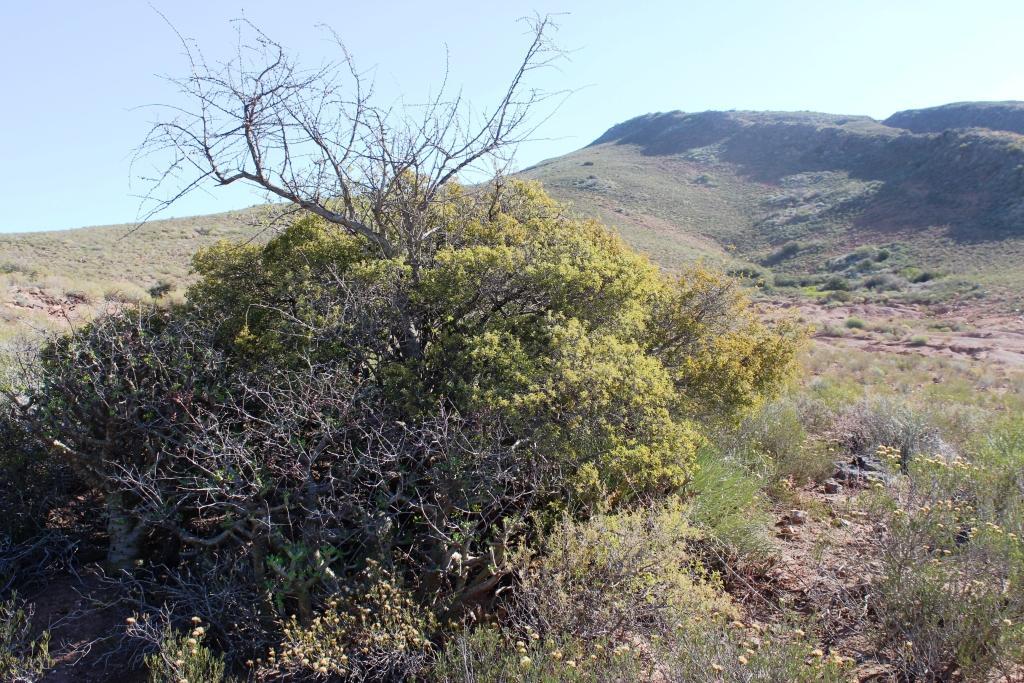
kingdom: Plantae
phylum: Tracheophyta
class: Magnoliopsida
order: Ericales
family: Ebenaceae
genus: Euclea
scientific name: Euclea undulata
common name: Small-leaved guarri
